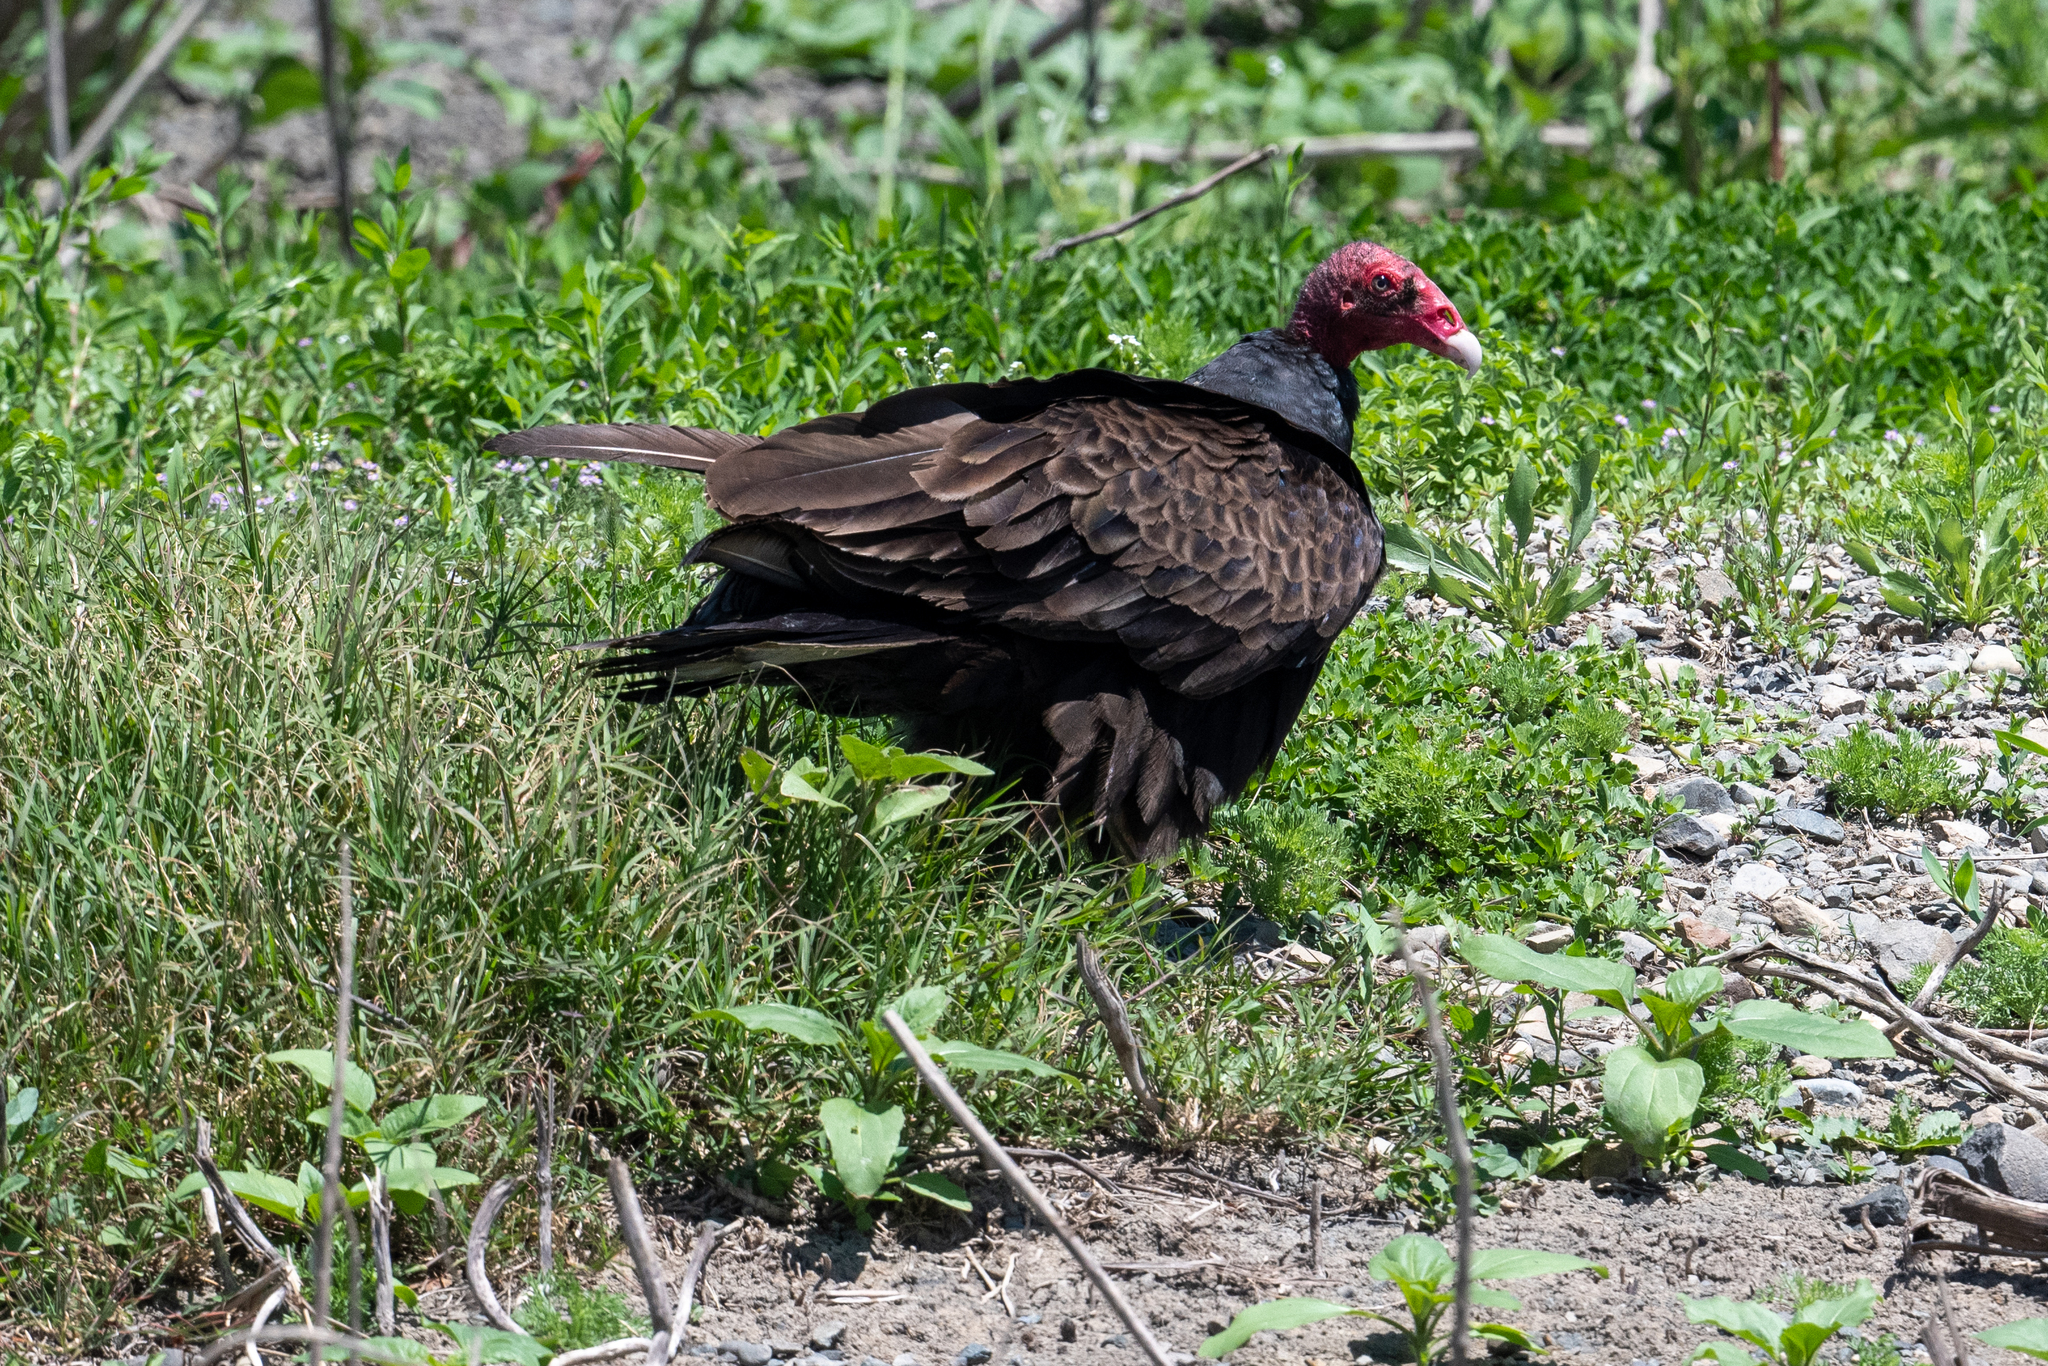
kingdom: Animalia
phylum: Chordata
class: Aves
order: Accipitriformes
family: Cathartidae
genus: Cathartes
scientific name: Cathartes aura
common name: Turkey vulture
